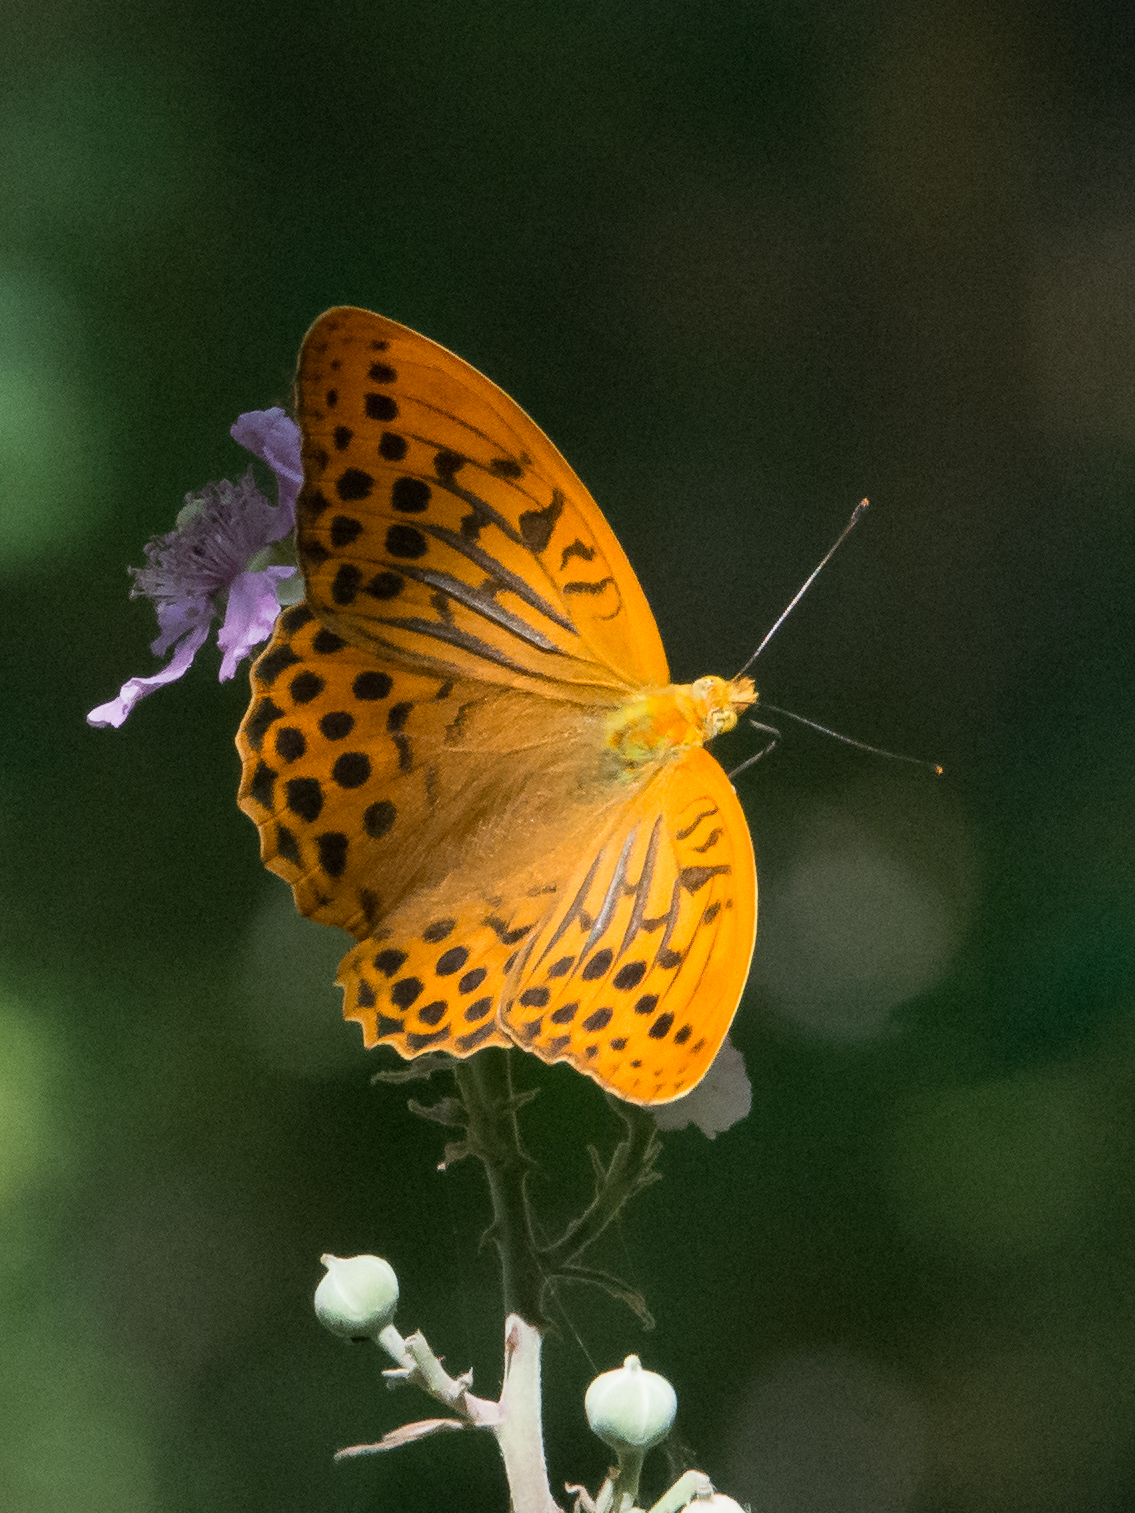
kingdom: Animalia
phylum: Arthropoda
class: Insecta
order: Lepidoptera
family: Nymphalidae
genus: Argynnis
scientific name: Argynnis paphia
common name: Silver-washed fritillary
